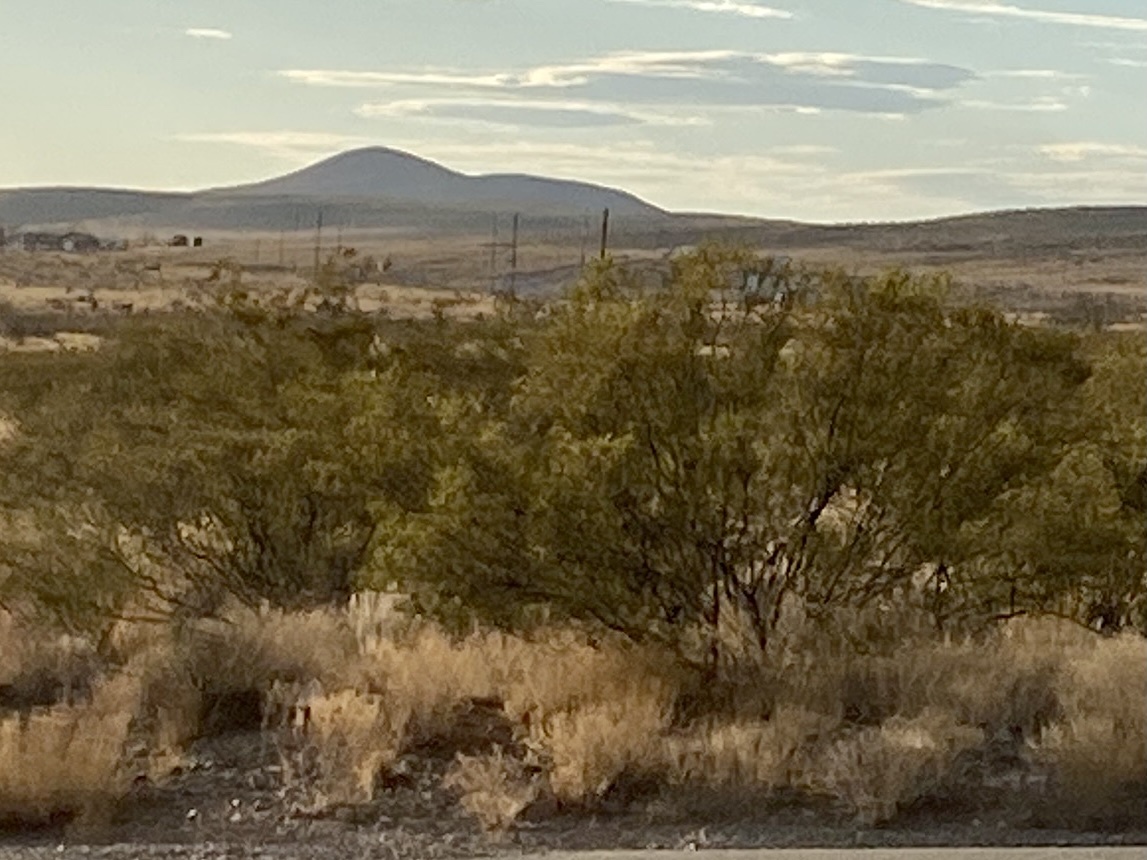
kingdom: Plantae
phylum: Tracheophyta
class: Magnoliopsida
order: Zygophyllales
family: Zygophyllaceae
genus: Larrea
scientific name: Larrea tridentata
